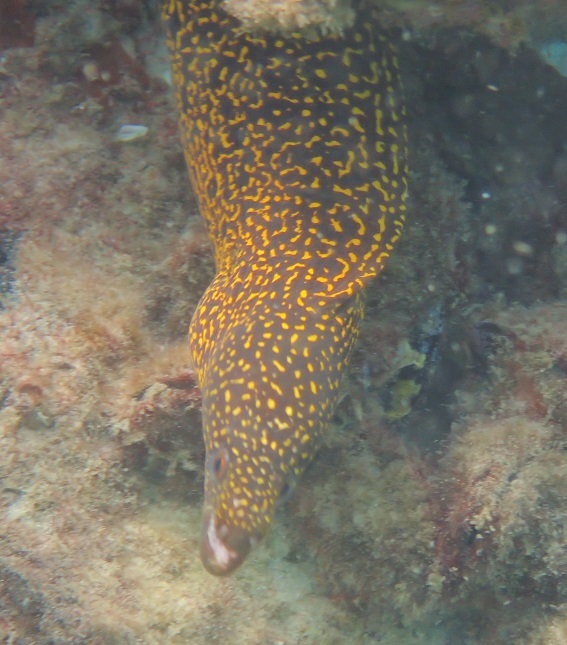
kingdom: Animalia
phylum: Chordata
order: Anguilliformes
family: Muraenidae
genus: Gymnothorax
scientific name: Gymnothorax eurostus
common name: Stout moray
